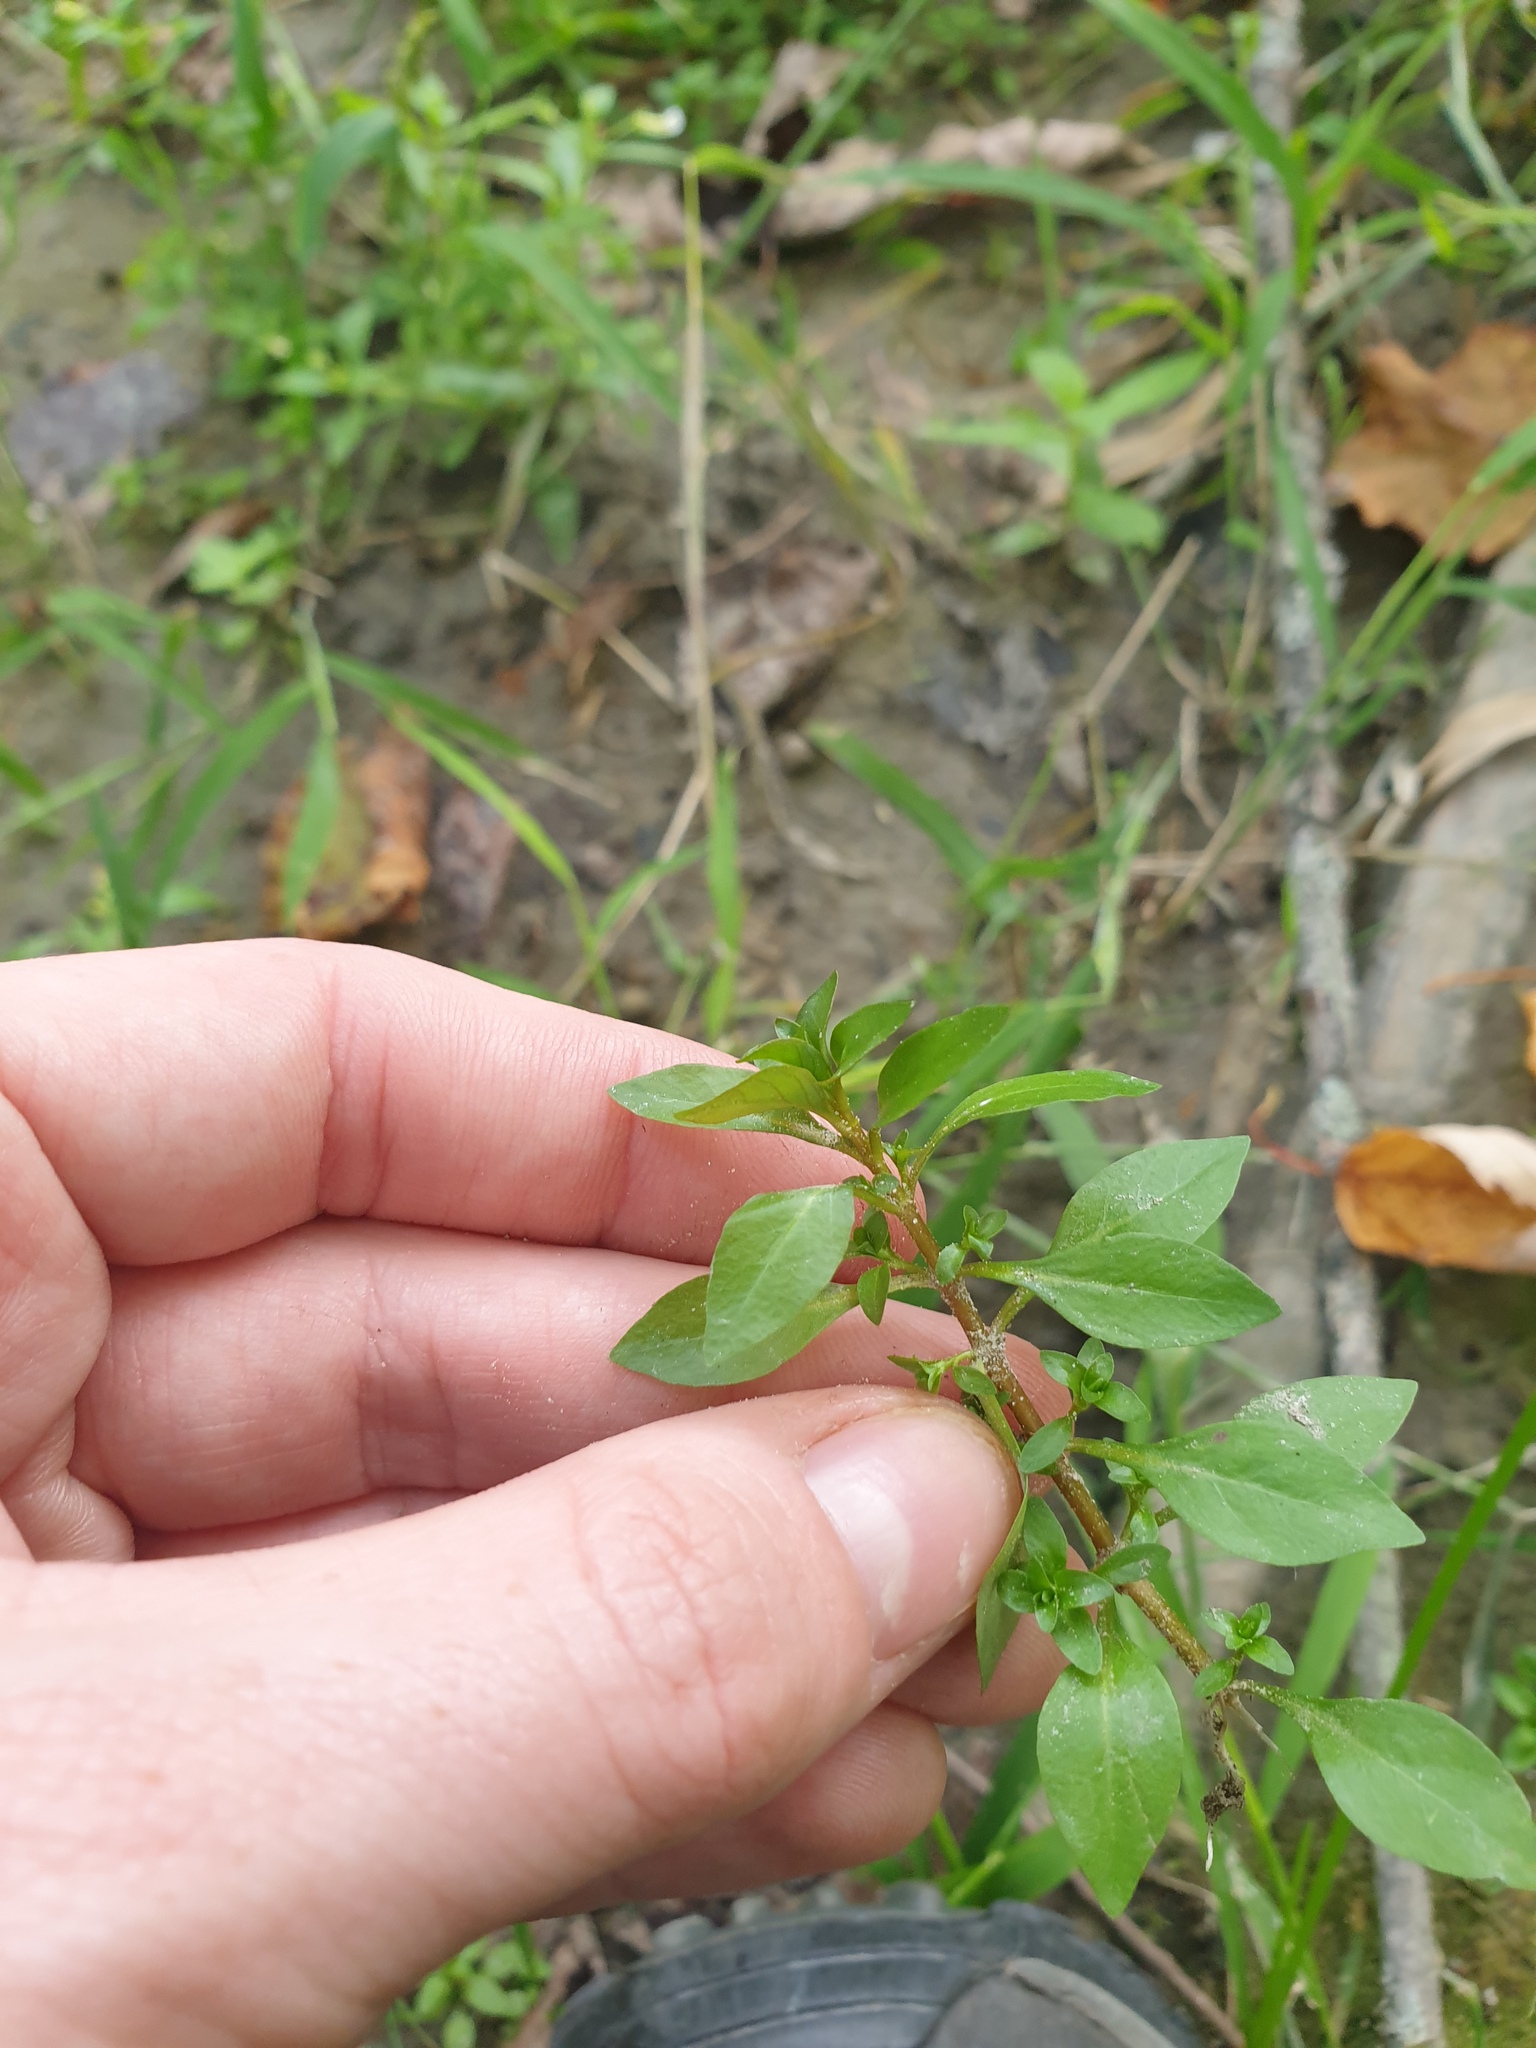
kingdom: Plantae
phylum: Tracheophyta
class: Magnoliopsida
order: Myrtales
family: Onagraceae
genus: Ludwigia
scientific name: Ludwigia palustris
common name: Hampshire-purslane
